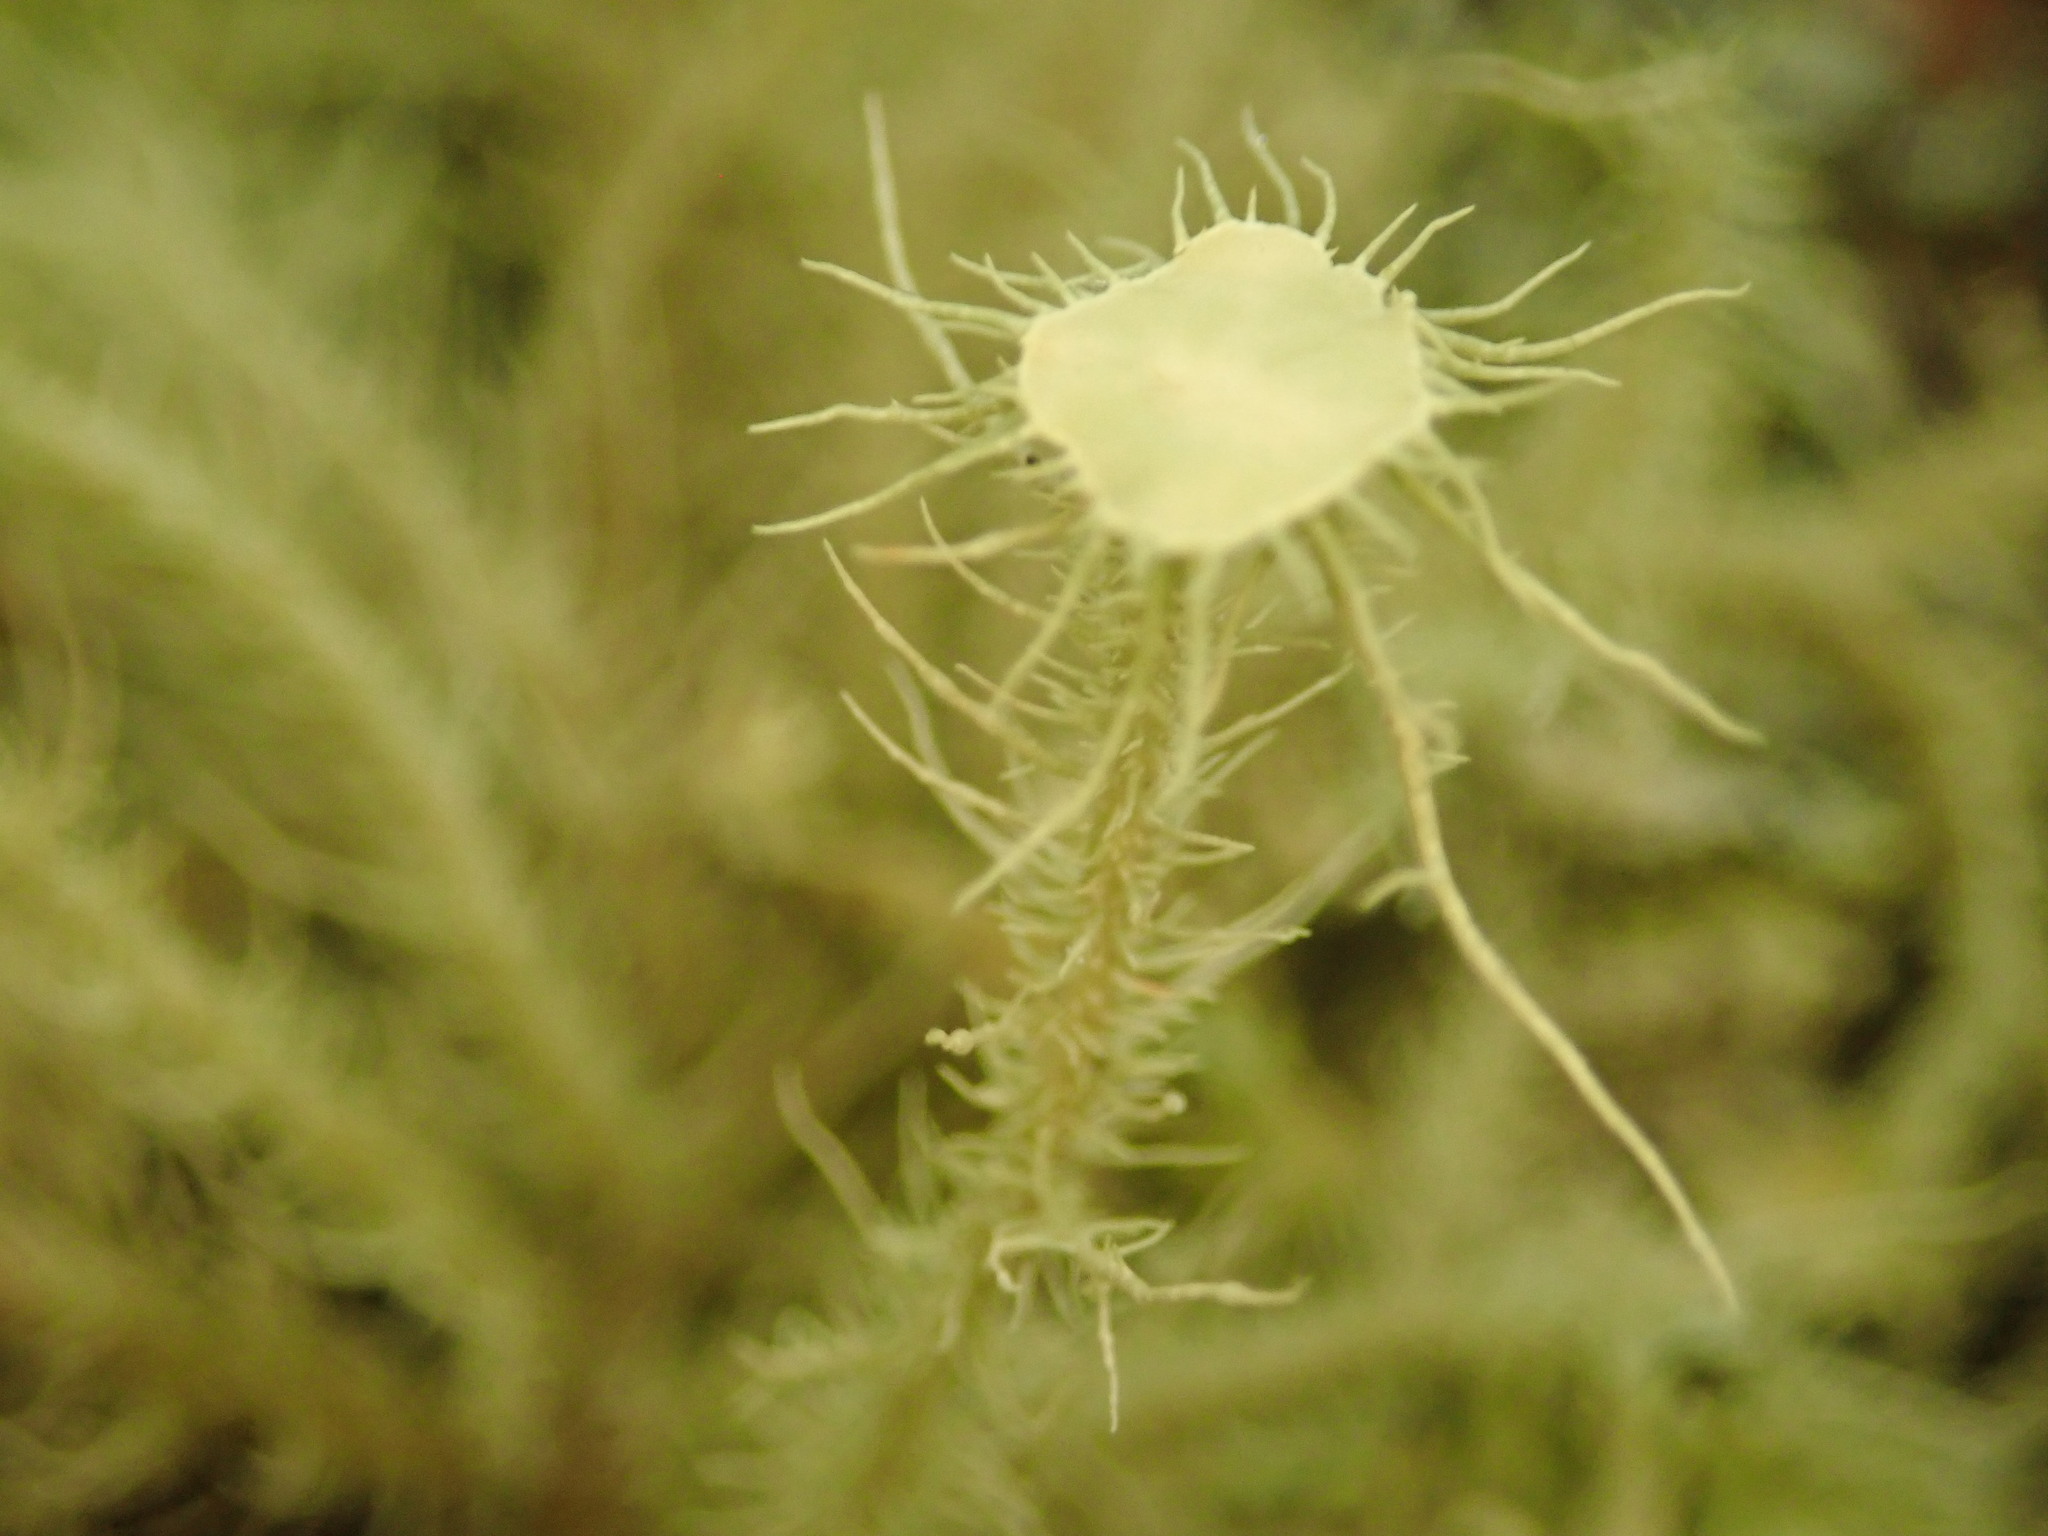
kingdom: Fungi
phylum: Ascomycota
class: Lecanoromycetes
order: Lecanorales
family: Parmeliaceae
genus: Usnea
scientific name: Usnea strigosa
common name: Bushy beard lichen
